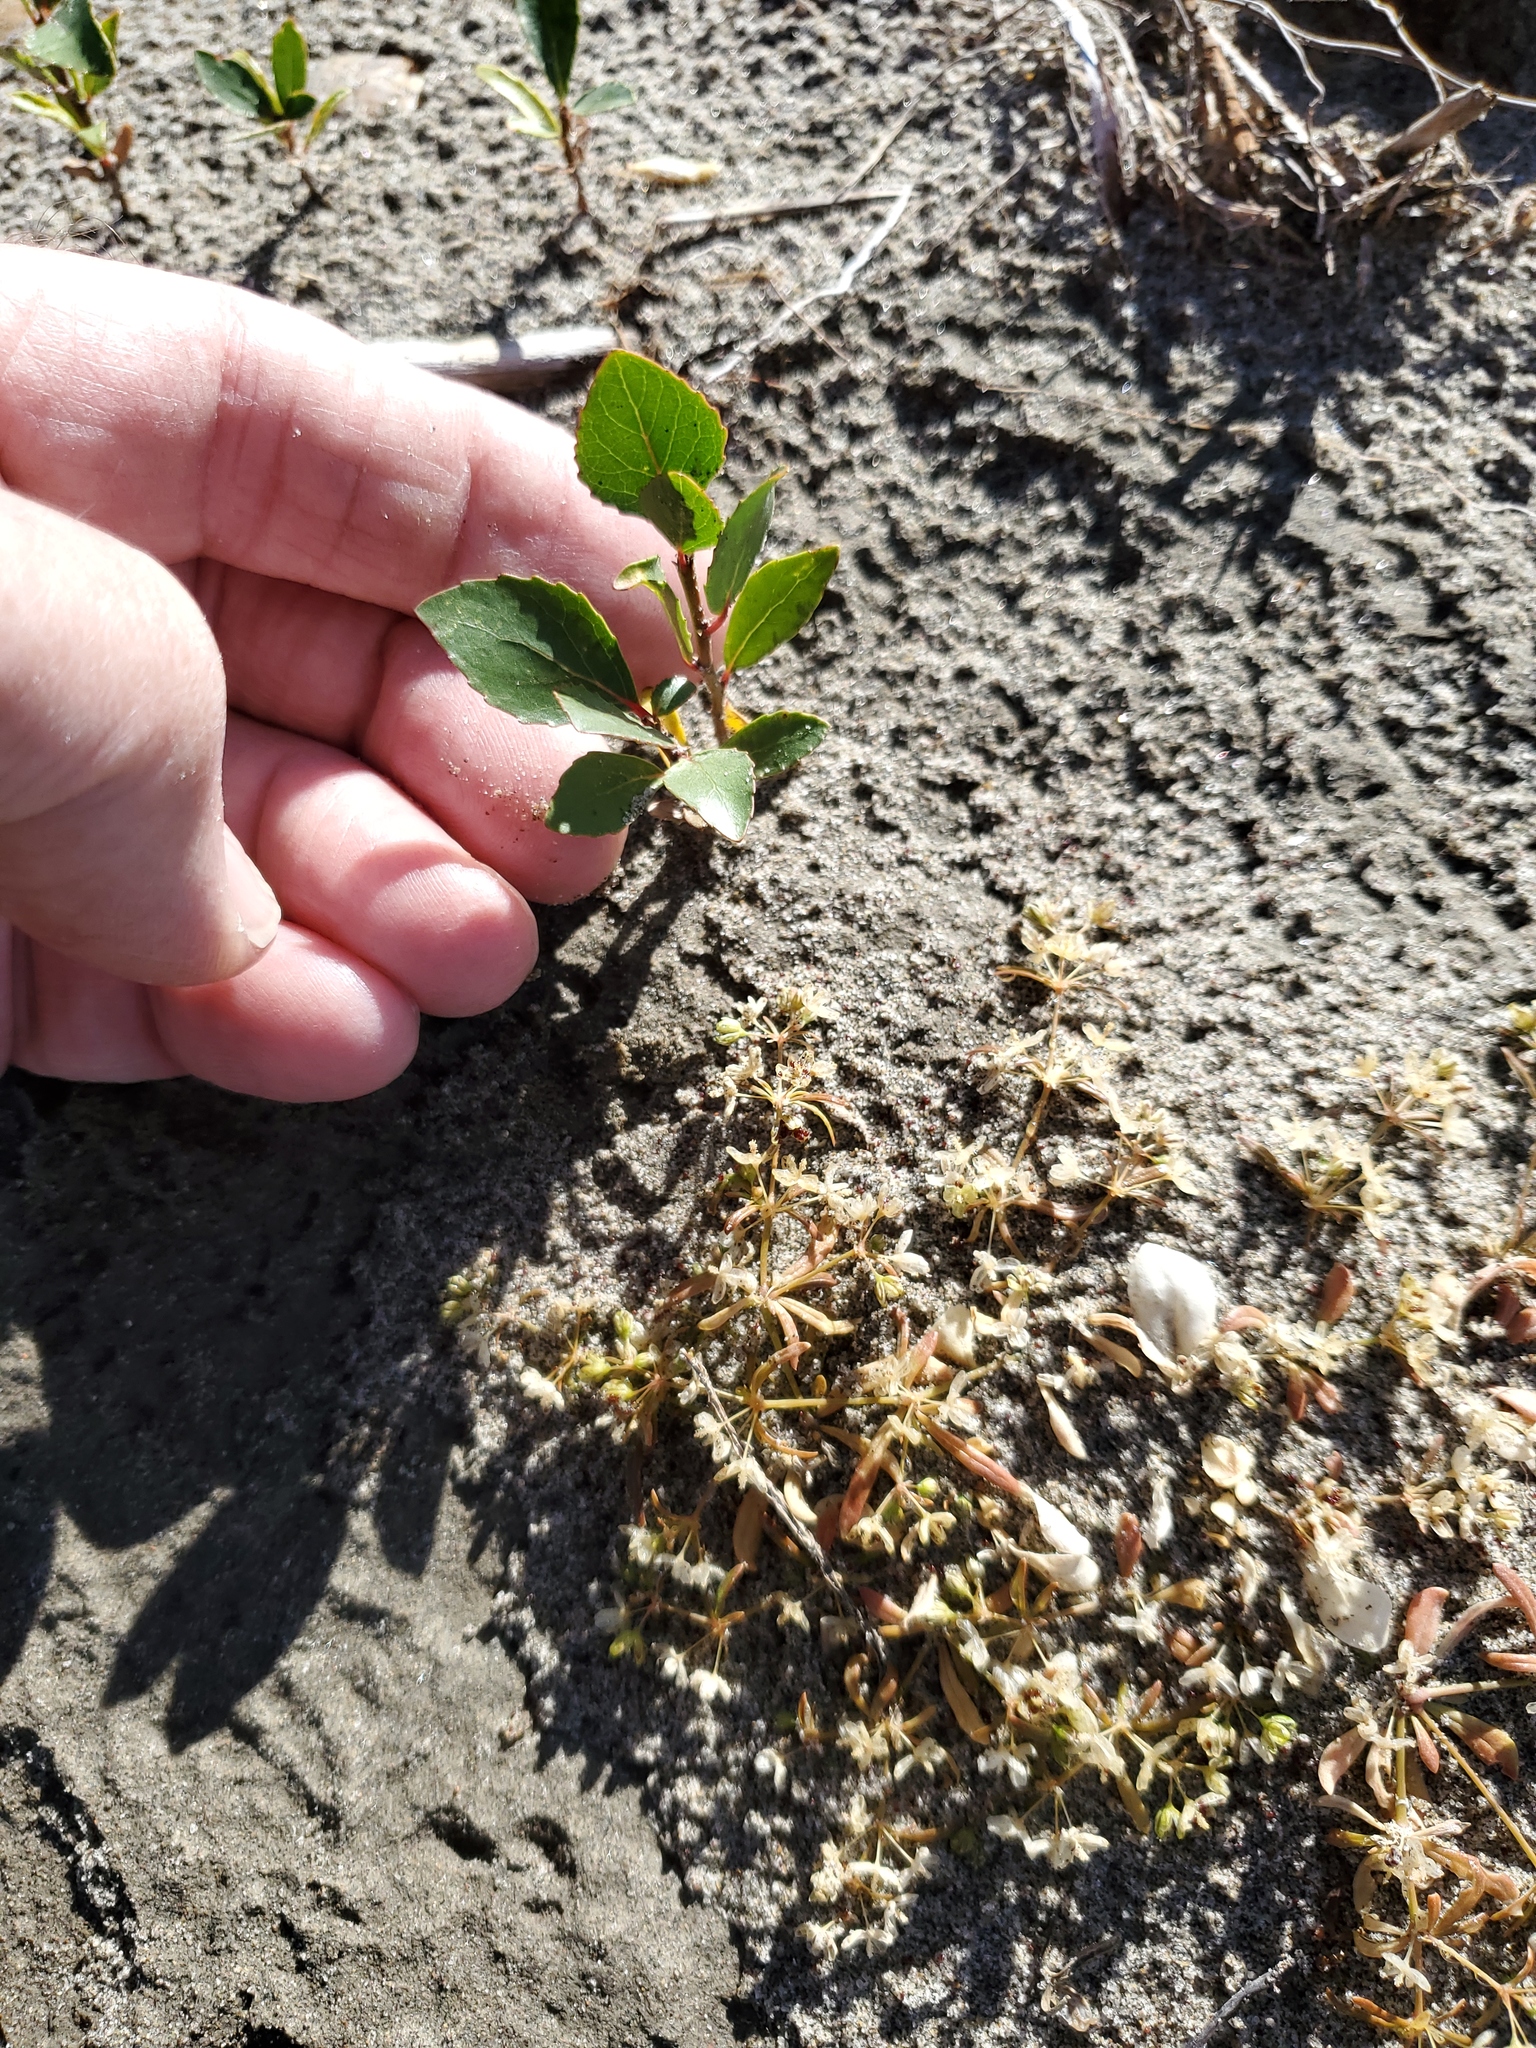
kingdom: Plantae
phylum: Tracheophyta
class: Magnoliopsida
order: Malpighiales
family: Salicaceae
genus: Populus
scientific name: Populus deltoides
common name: Eastern cottonwood
